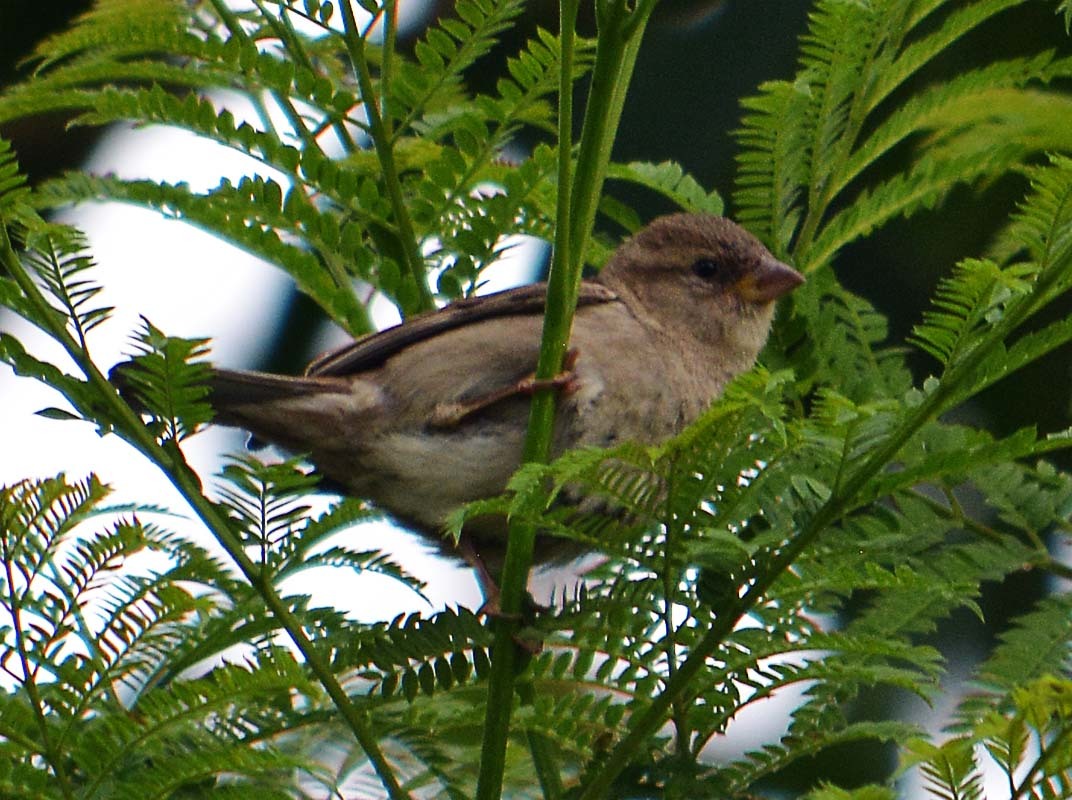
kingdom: Animalia
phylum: Chordata
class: Aves
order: Passeriformes
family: Passeridae
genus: Passer
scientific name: Passer domesticus
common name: House sparrow
